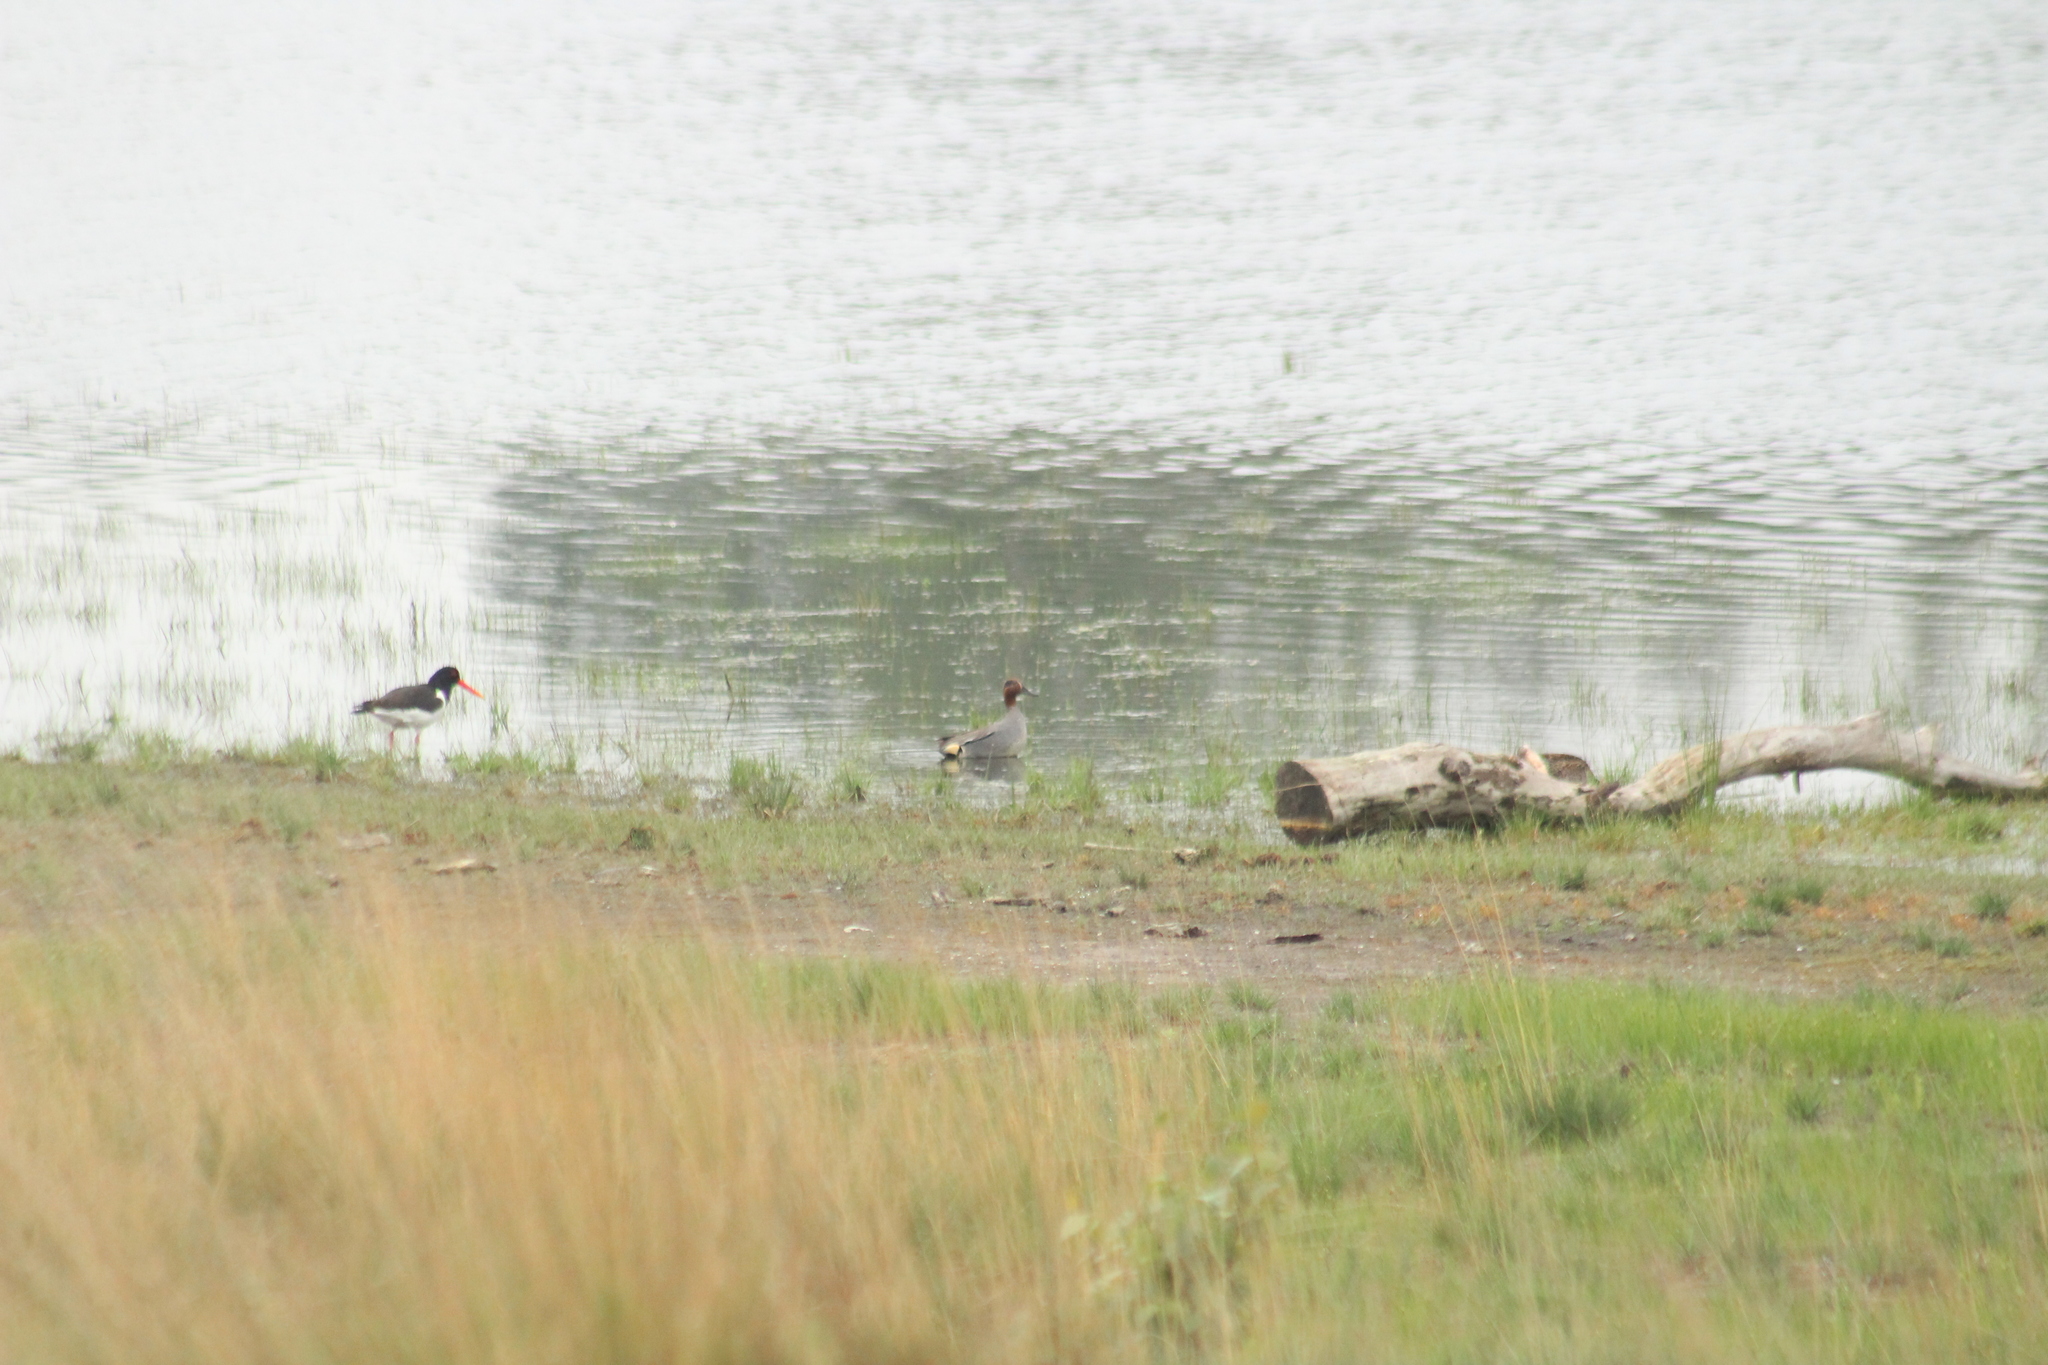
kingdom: Animalia
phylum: Chordata
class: Aves
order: Anseriformes
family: Anatidae
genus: Anas
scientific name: Anas crecca
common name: Eurasian teal
